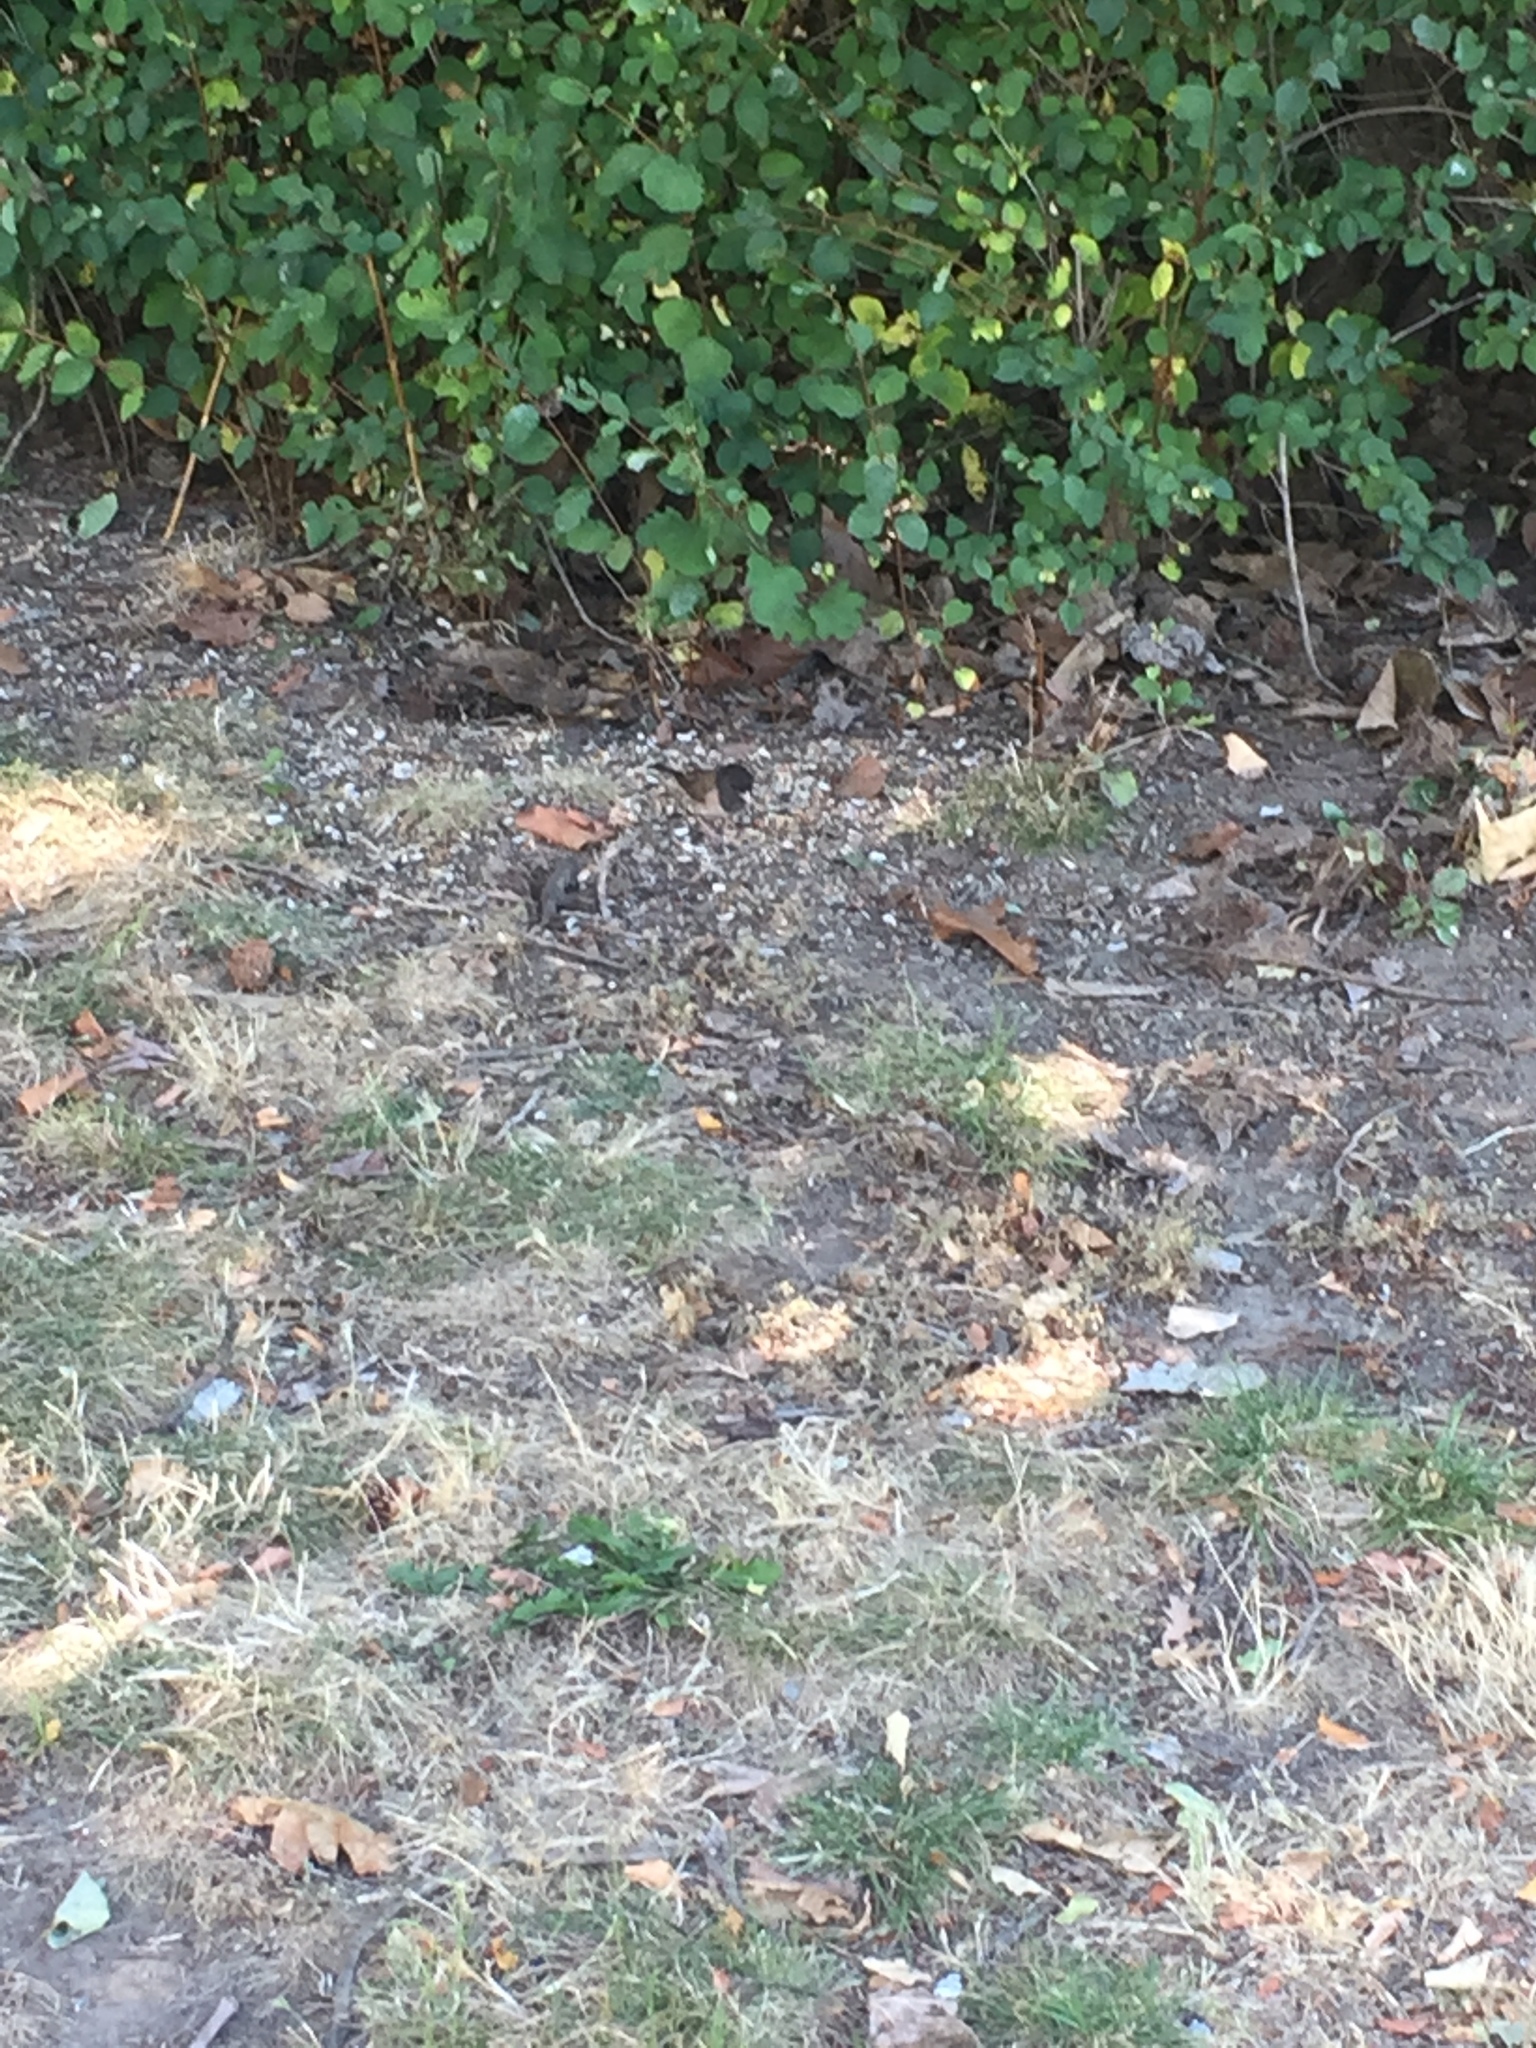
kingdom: Animalia
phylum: Chordata
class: Aves
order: Passeriformes
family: Passerellidae
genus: Junco
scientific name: Junco hyemalis
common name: Dark-eyed junco
